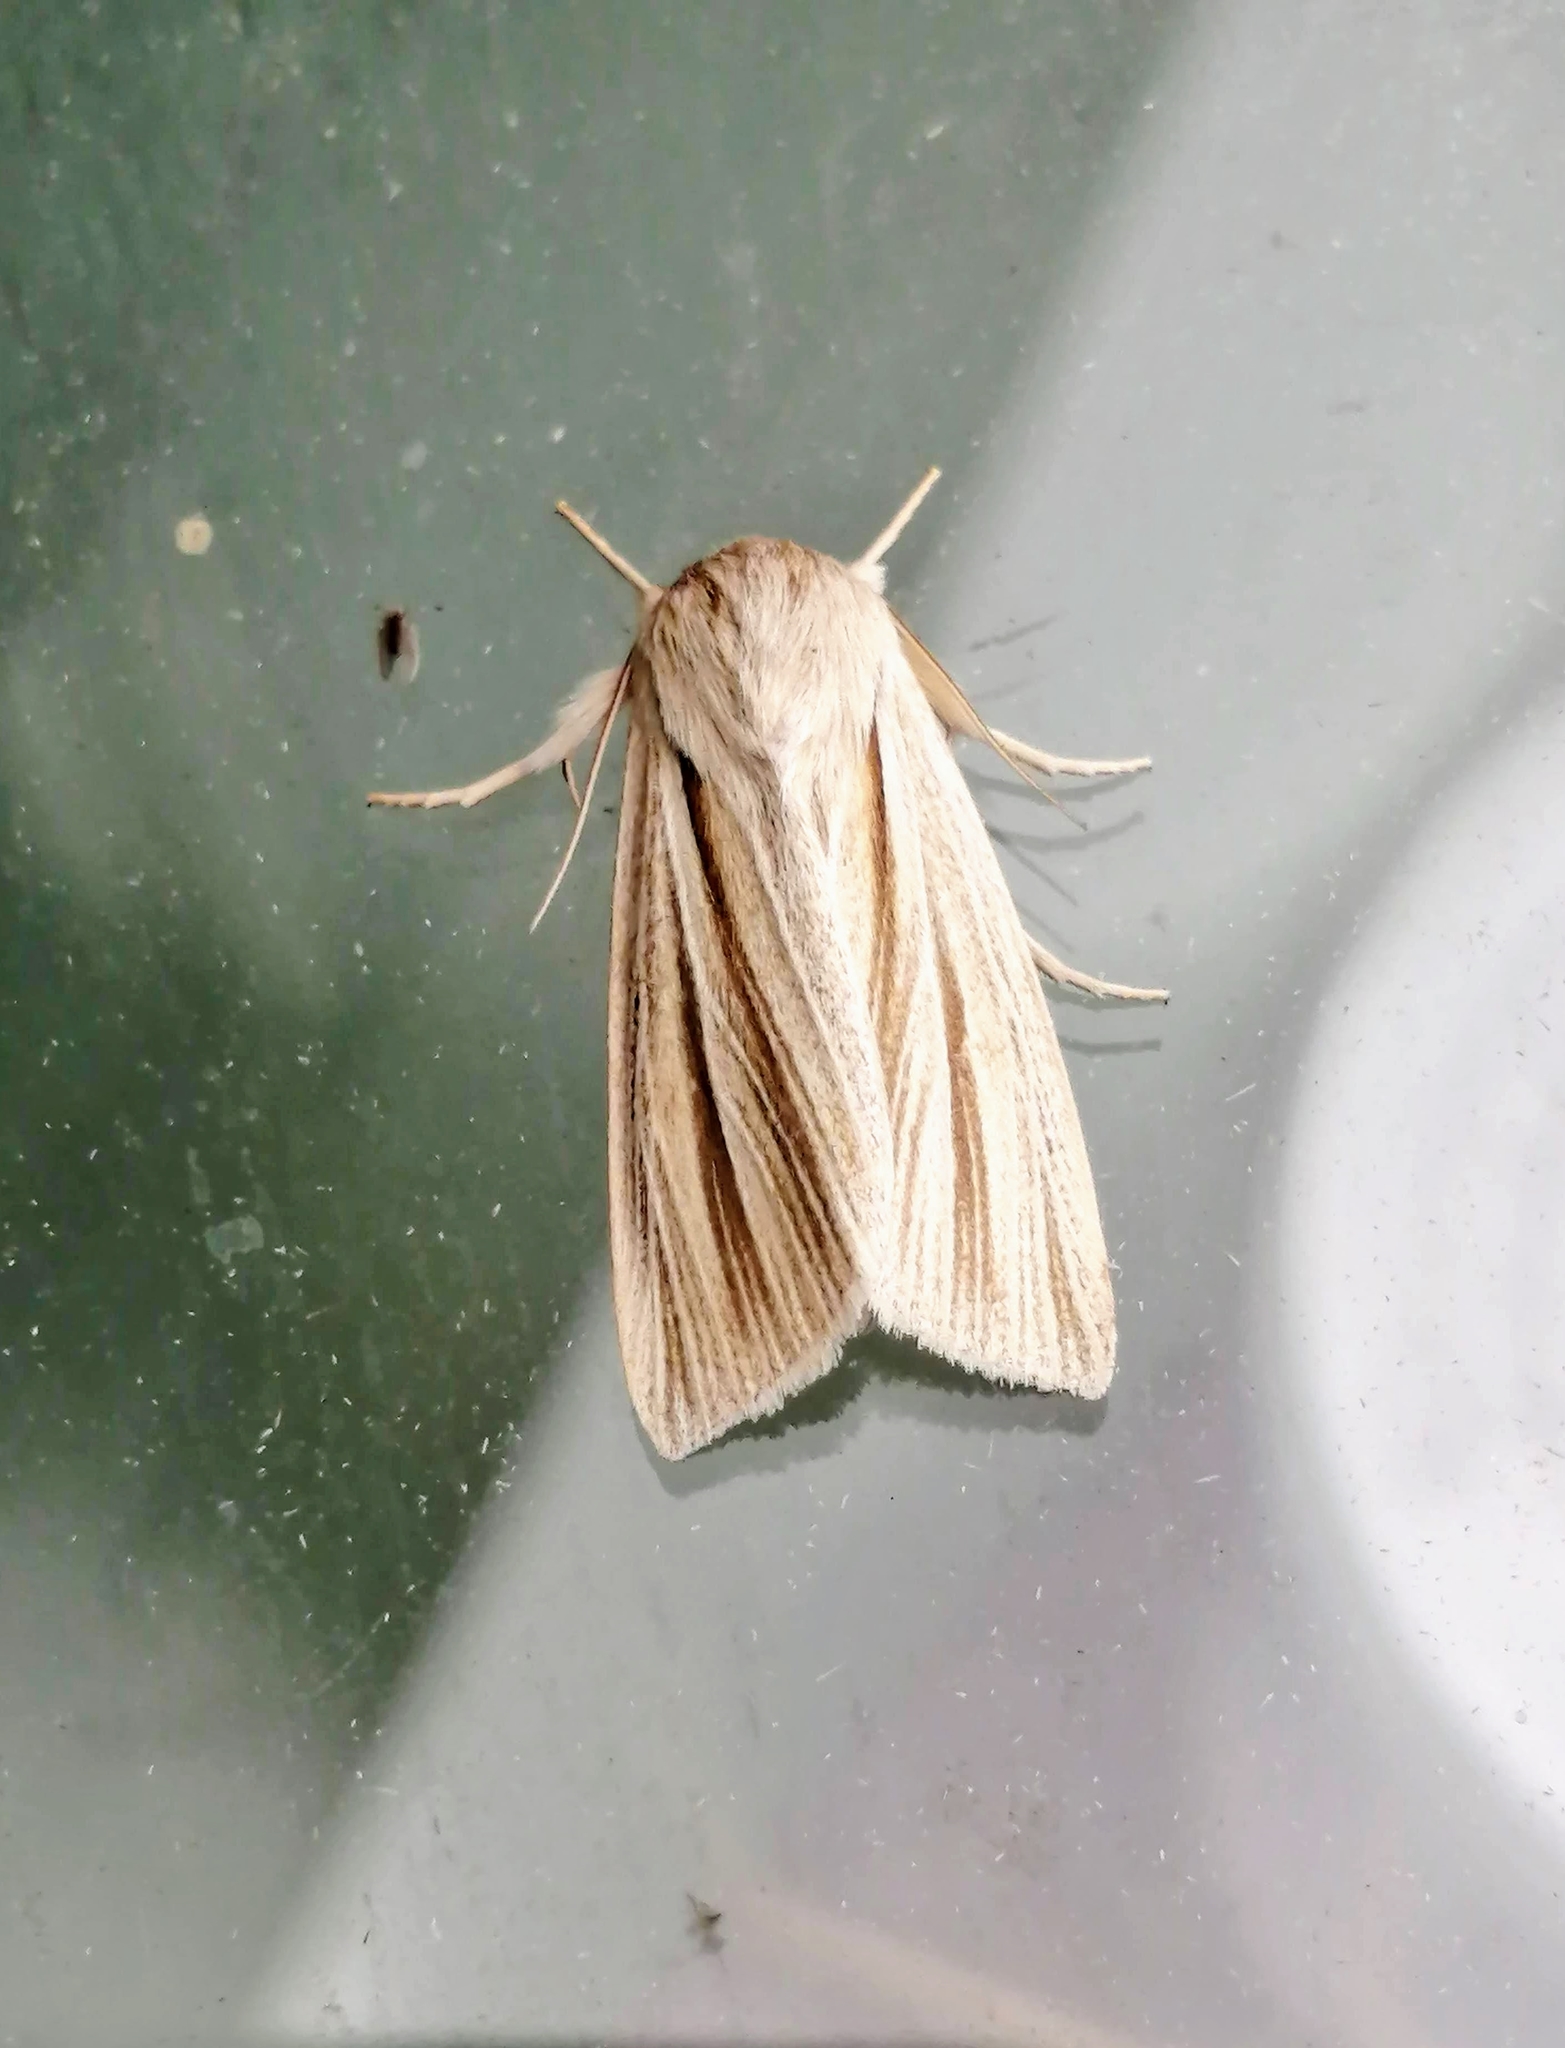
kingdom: Animalia
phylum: Arthropoda
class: Insecta
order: Lepidoptera
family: Noctuidae
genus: Acronicta
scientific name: Acronicta insularis
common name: Henry's marsh moth
